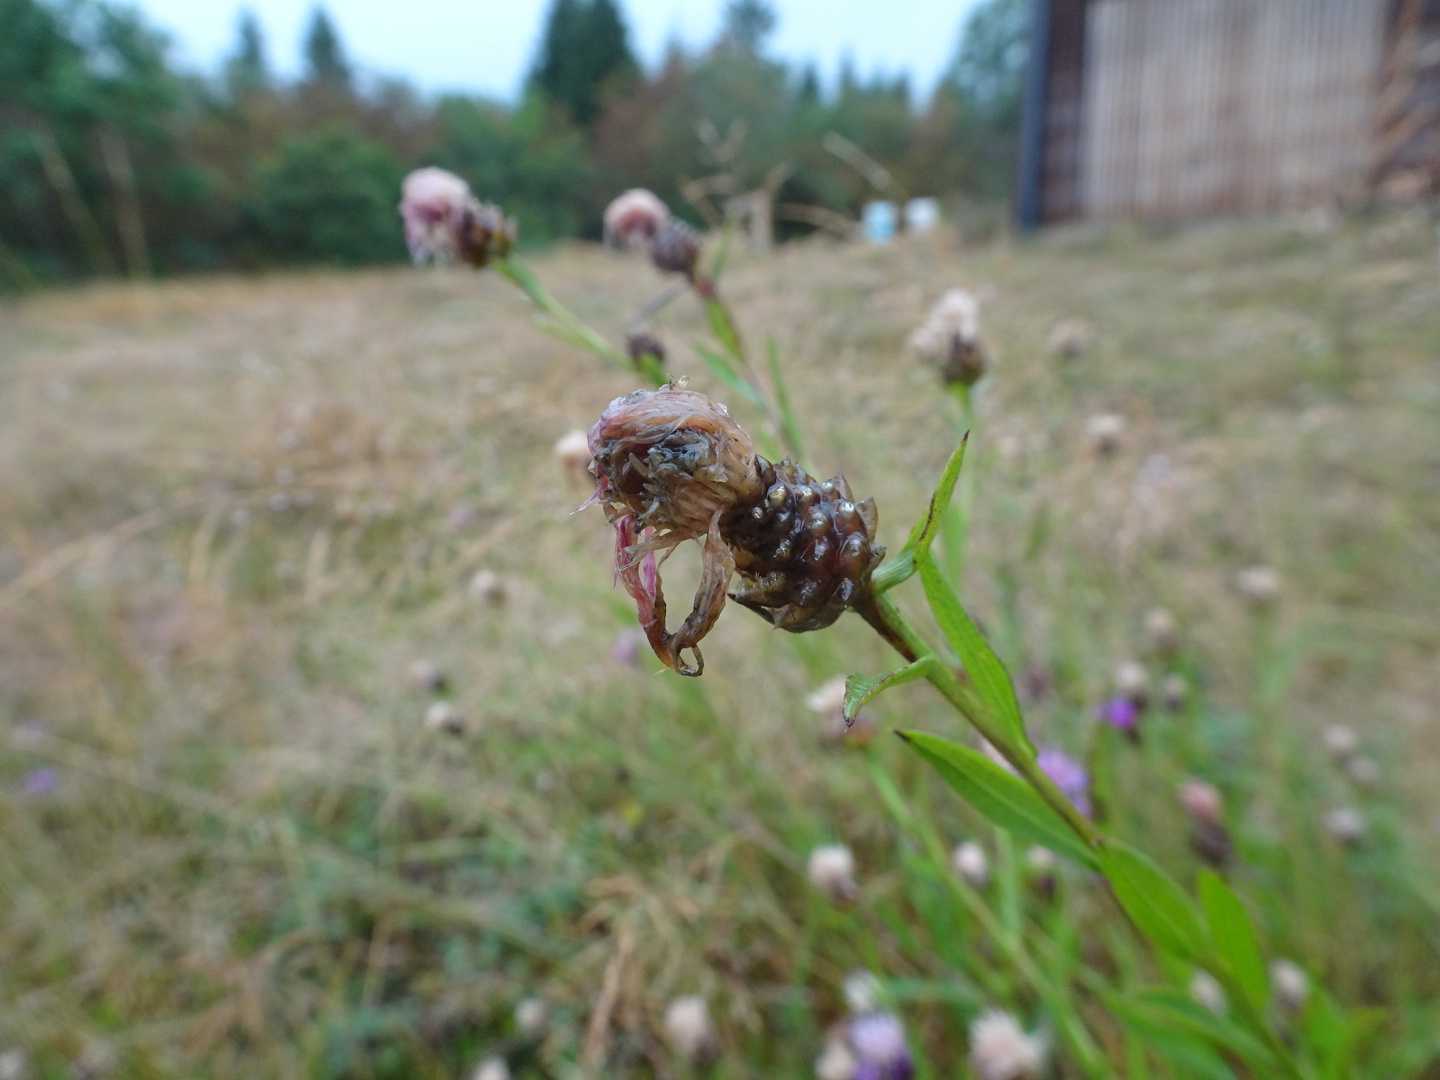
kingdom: Plantae
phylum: Tracheophyta
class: Magnoliopsida
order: Asterales
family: Asteraceae
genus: Centaurea
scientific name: Centaurea jacea
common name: Brown knapweed
